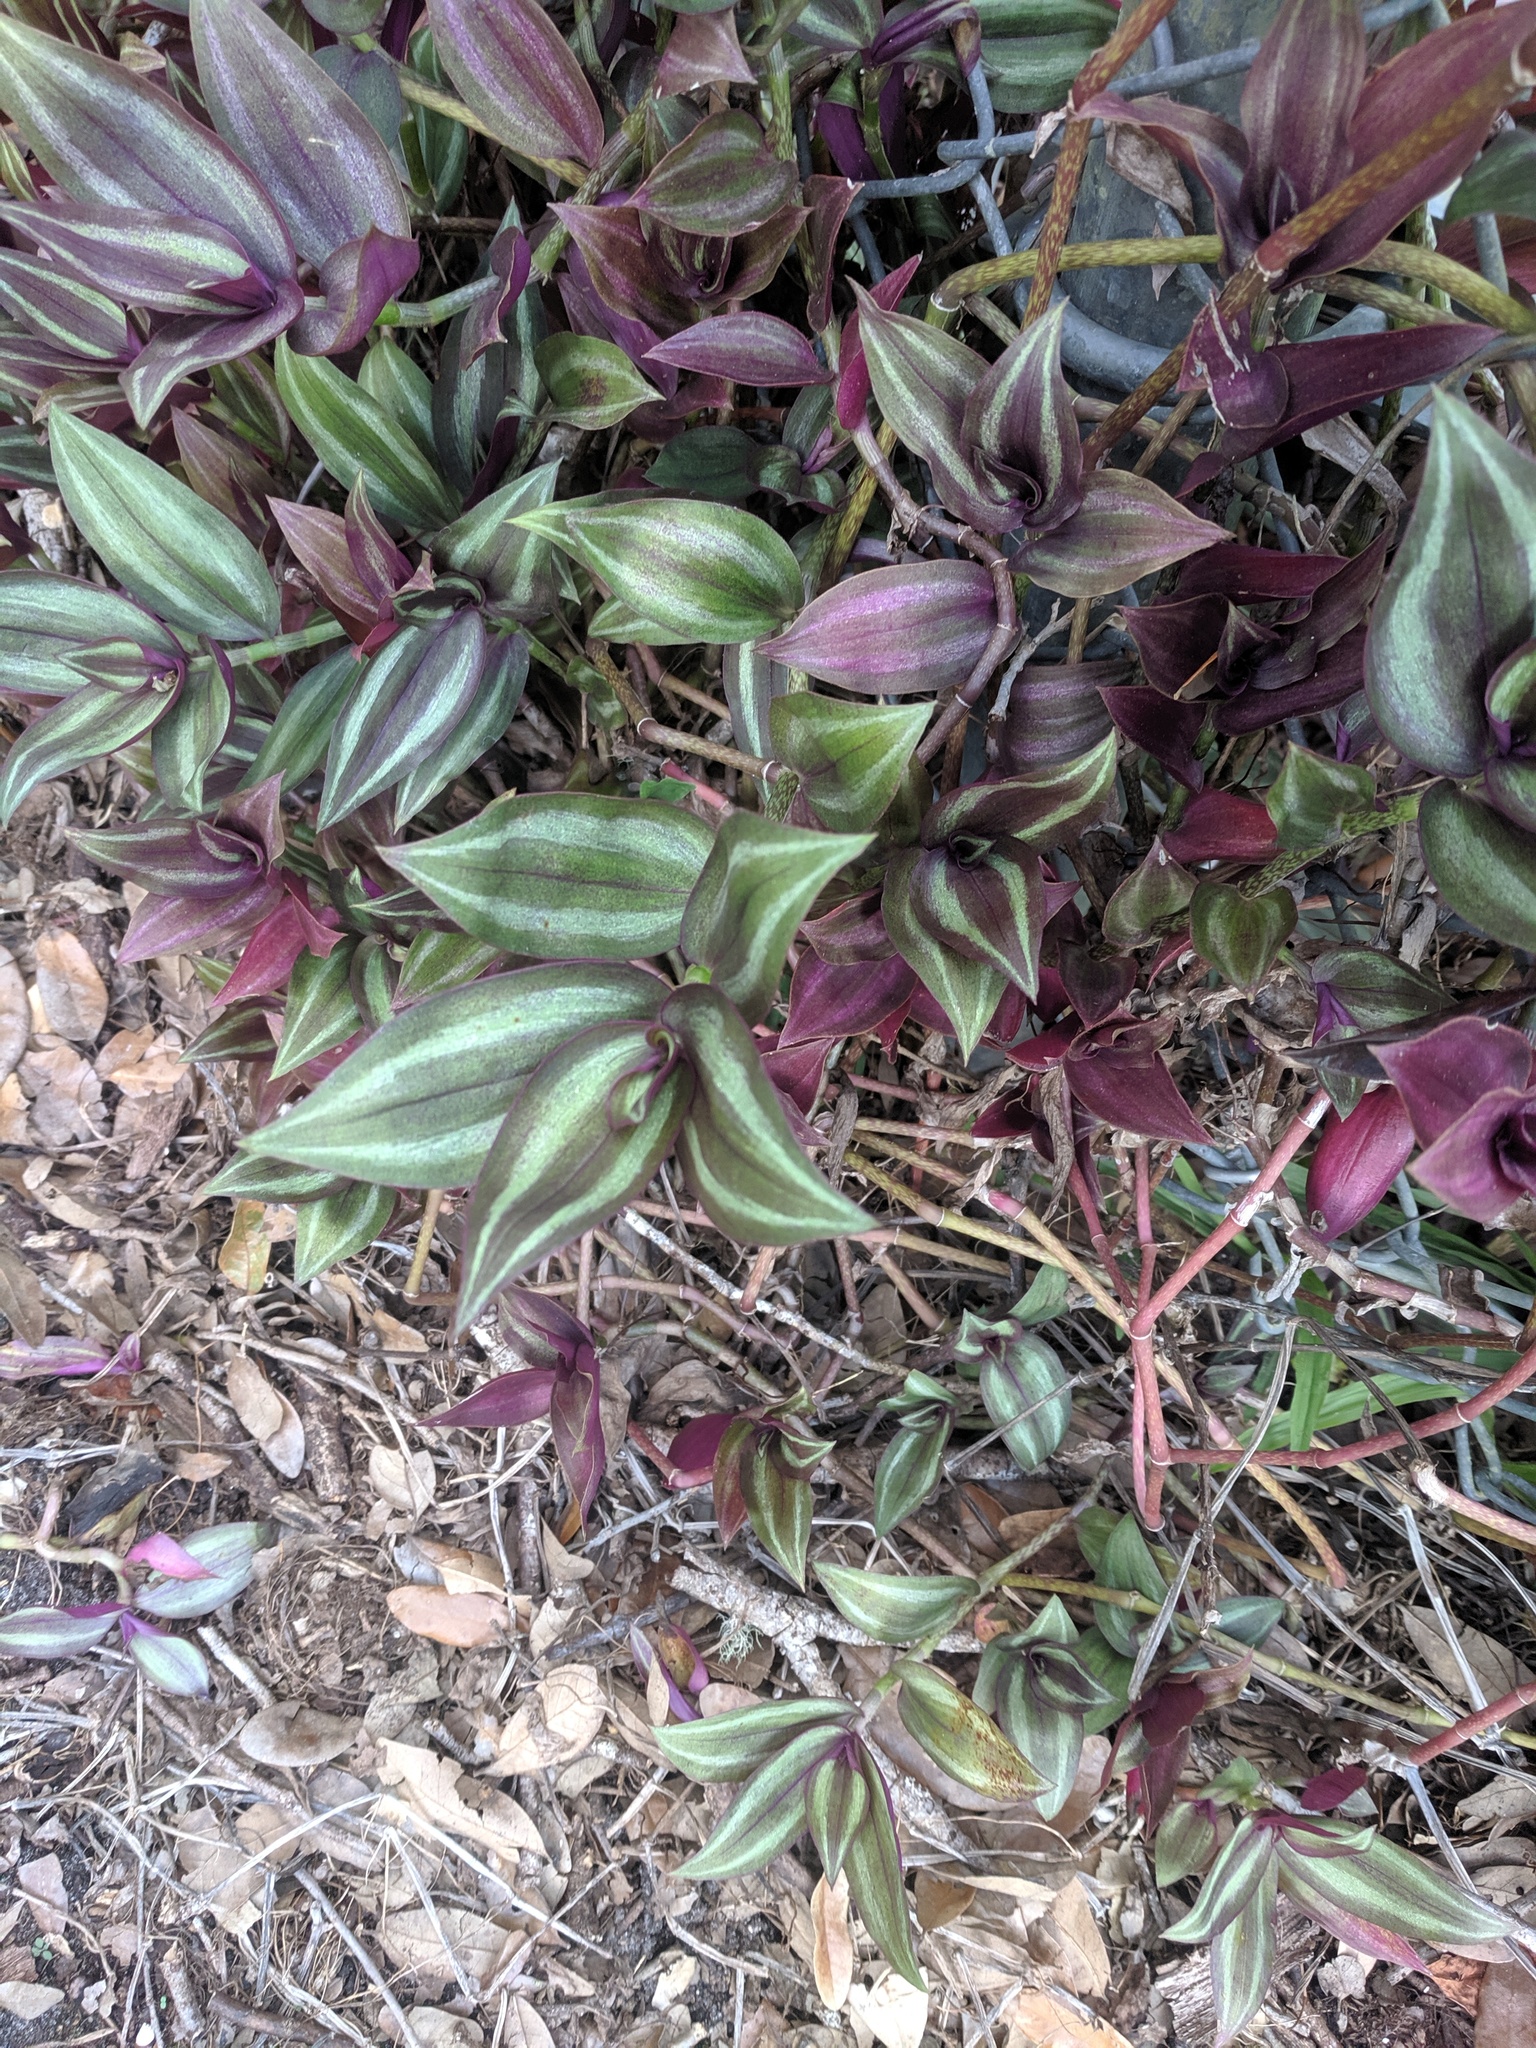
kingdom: Plantae
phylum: Tracheophyta
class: Liliopsida
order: Commelinales
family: Commelinaceae
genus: Tradescantia
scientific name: Tradescantia zebrina
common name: Inchplant
